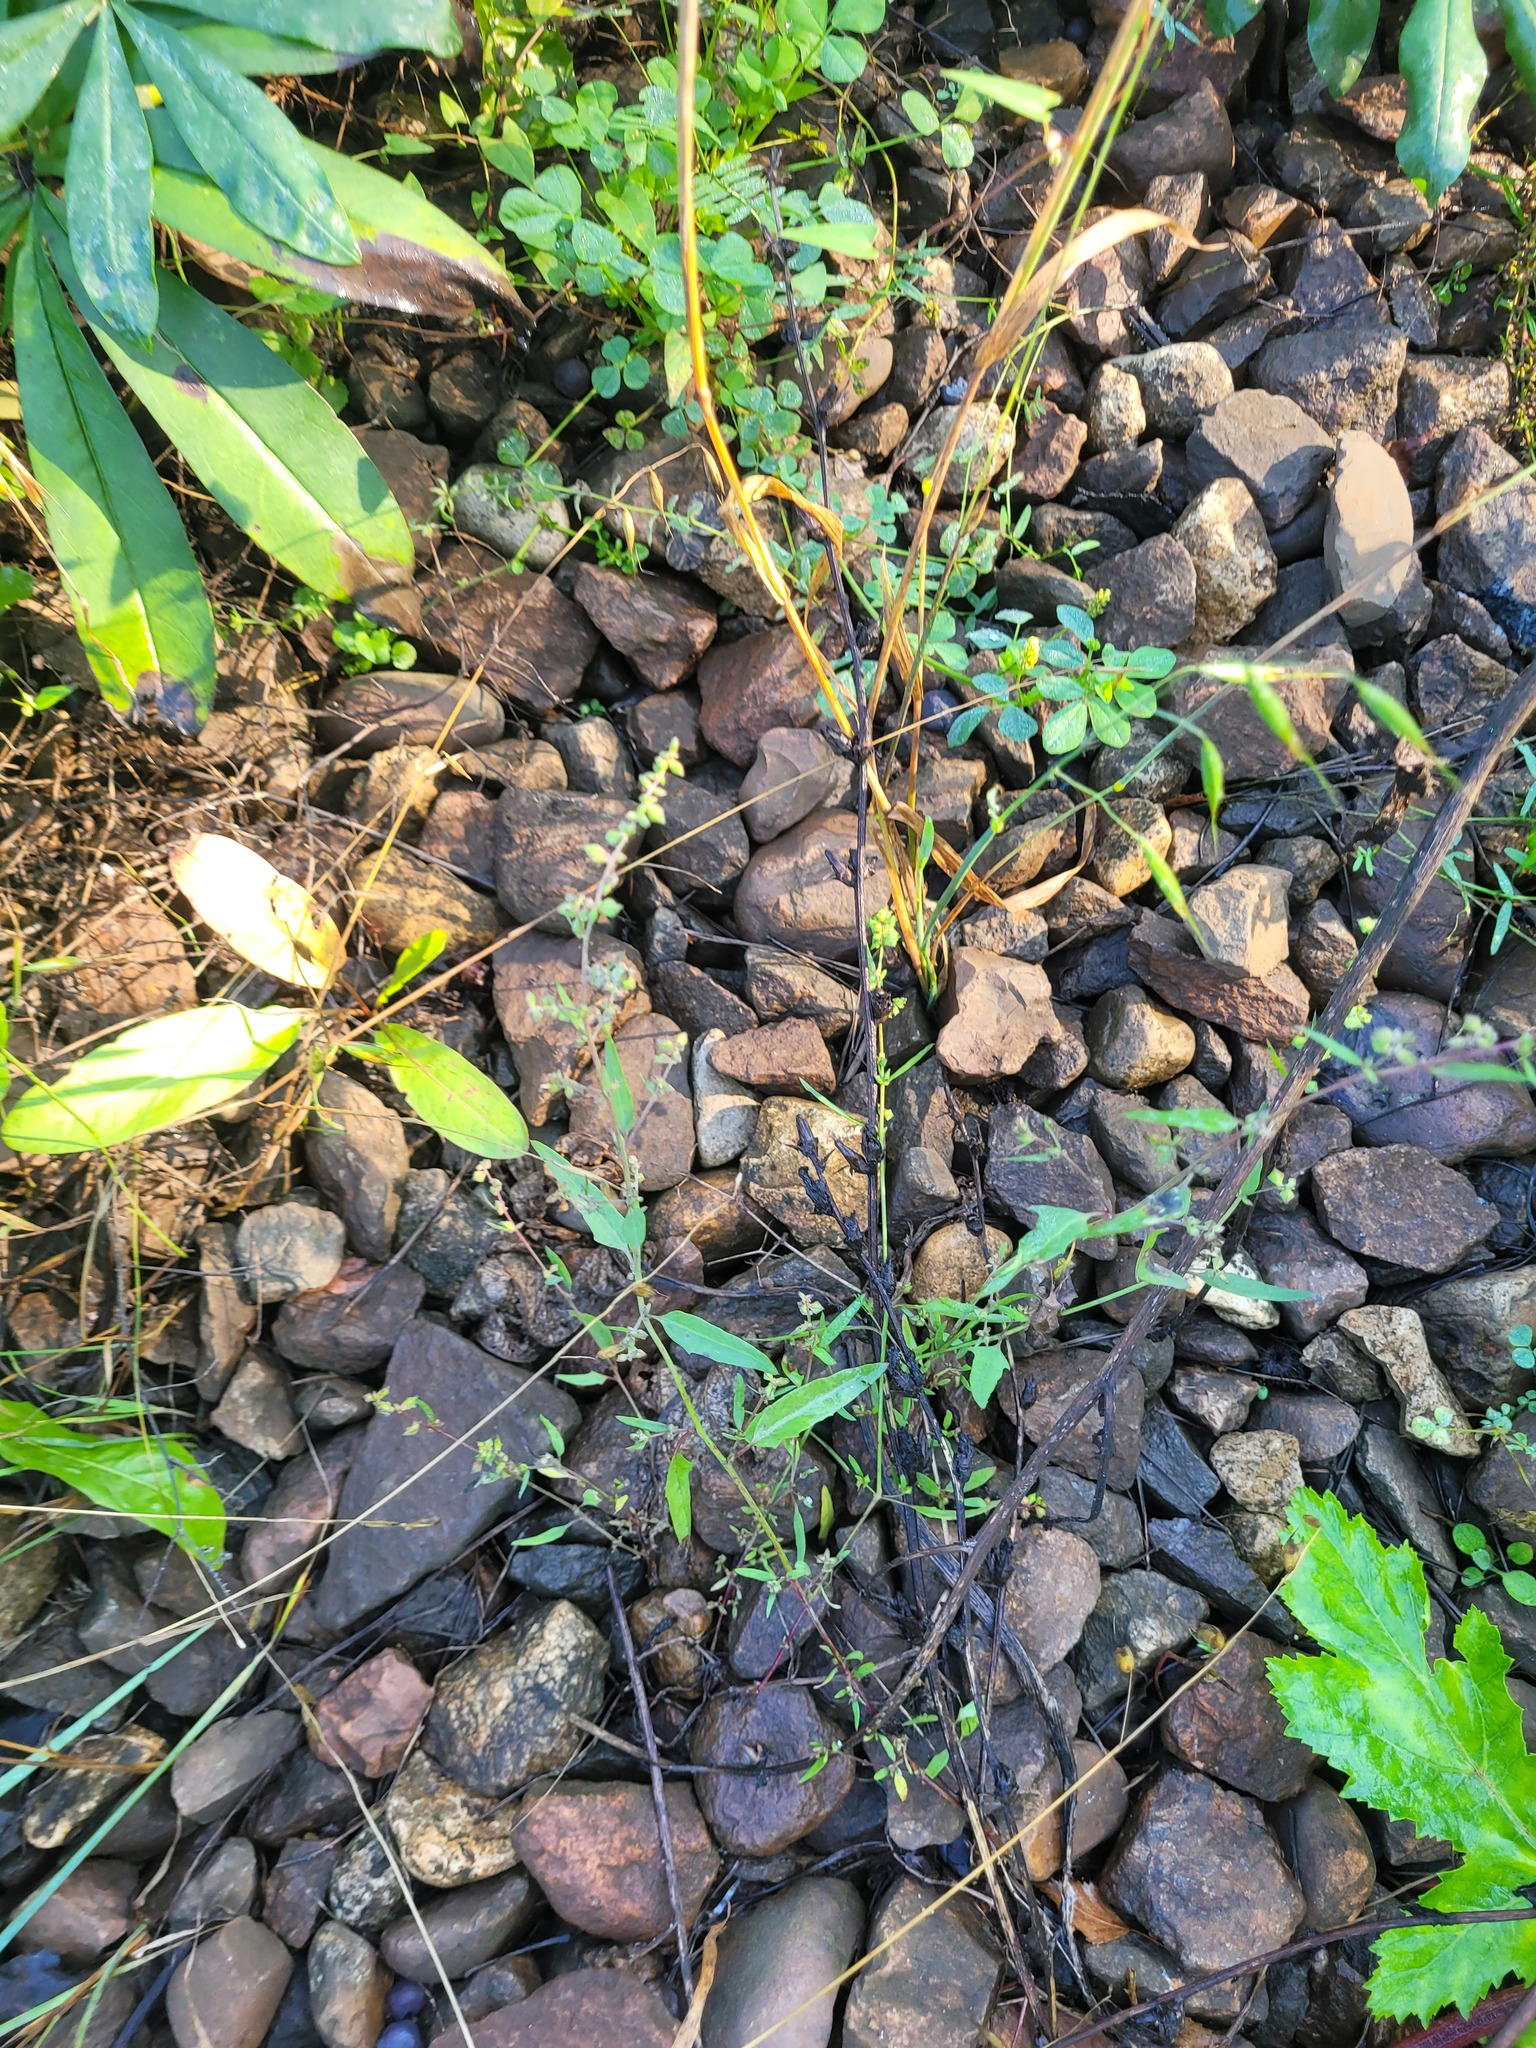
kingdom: Plantae
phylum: Tracheophyta
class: Magnoliopsida
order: Caryophyllales
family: Amaranthaceae
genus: Atriplex
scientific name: Atriplex patula
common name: Common orache
